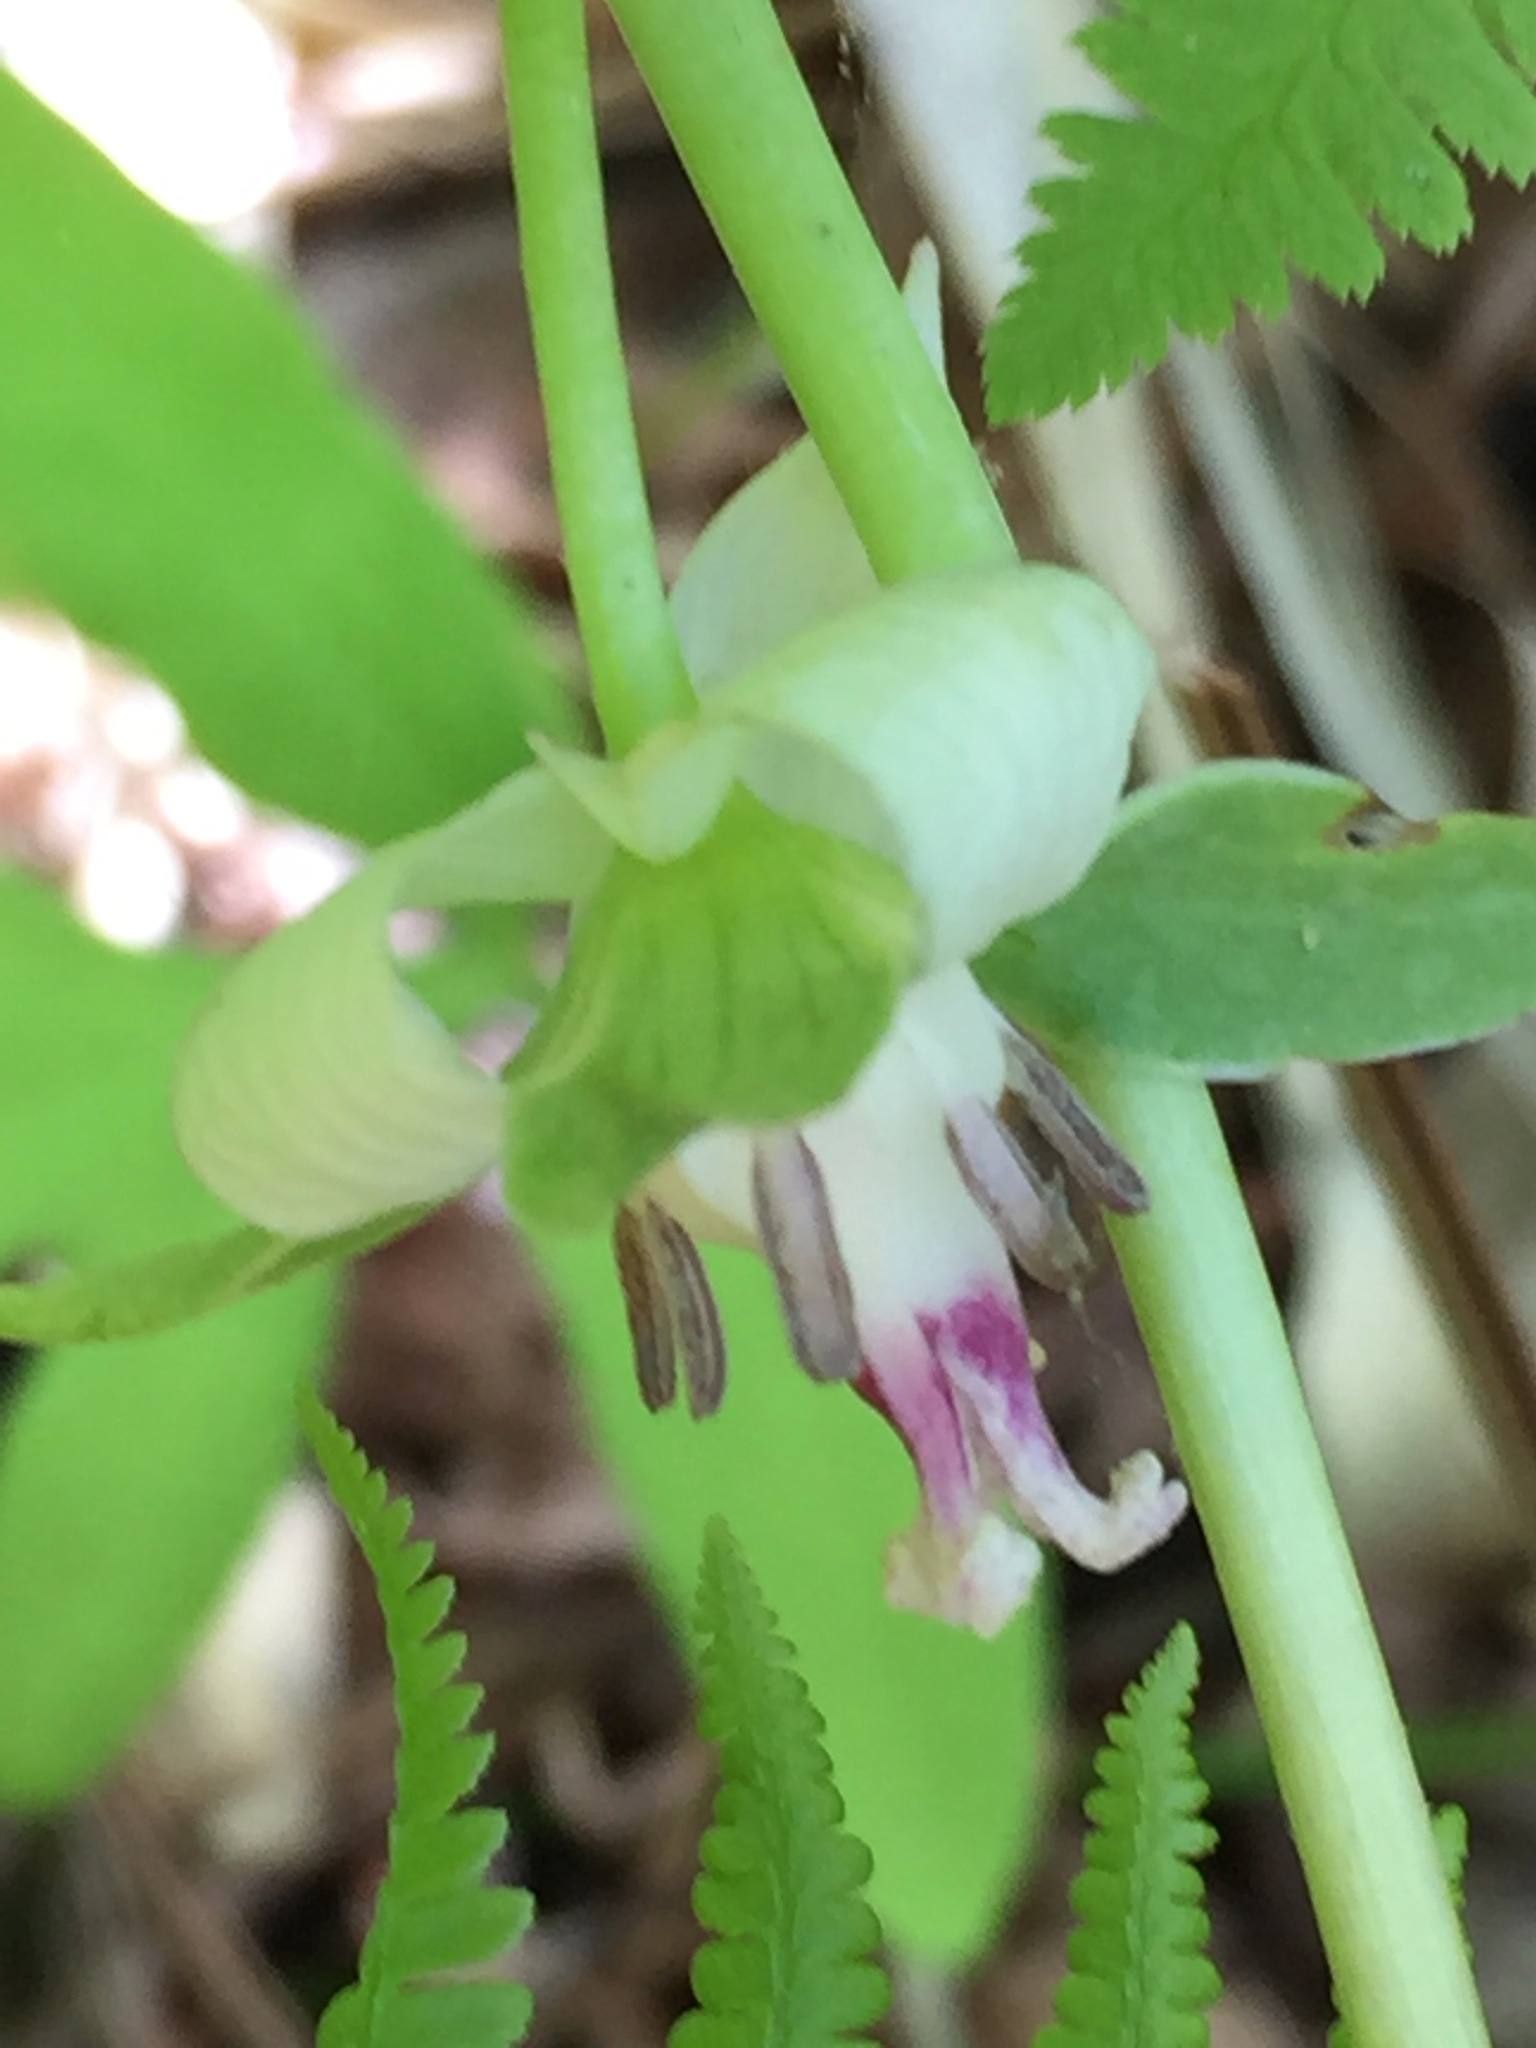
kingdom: Plantae
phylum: Tracheophyta
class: Liliopsida
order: Liliales
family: Melanthiaceae
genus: Trillium
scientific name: Trillium cernuum
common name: Nodding trillium
